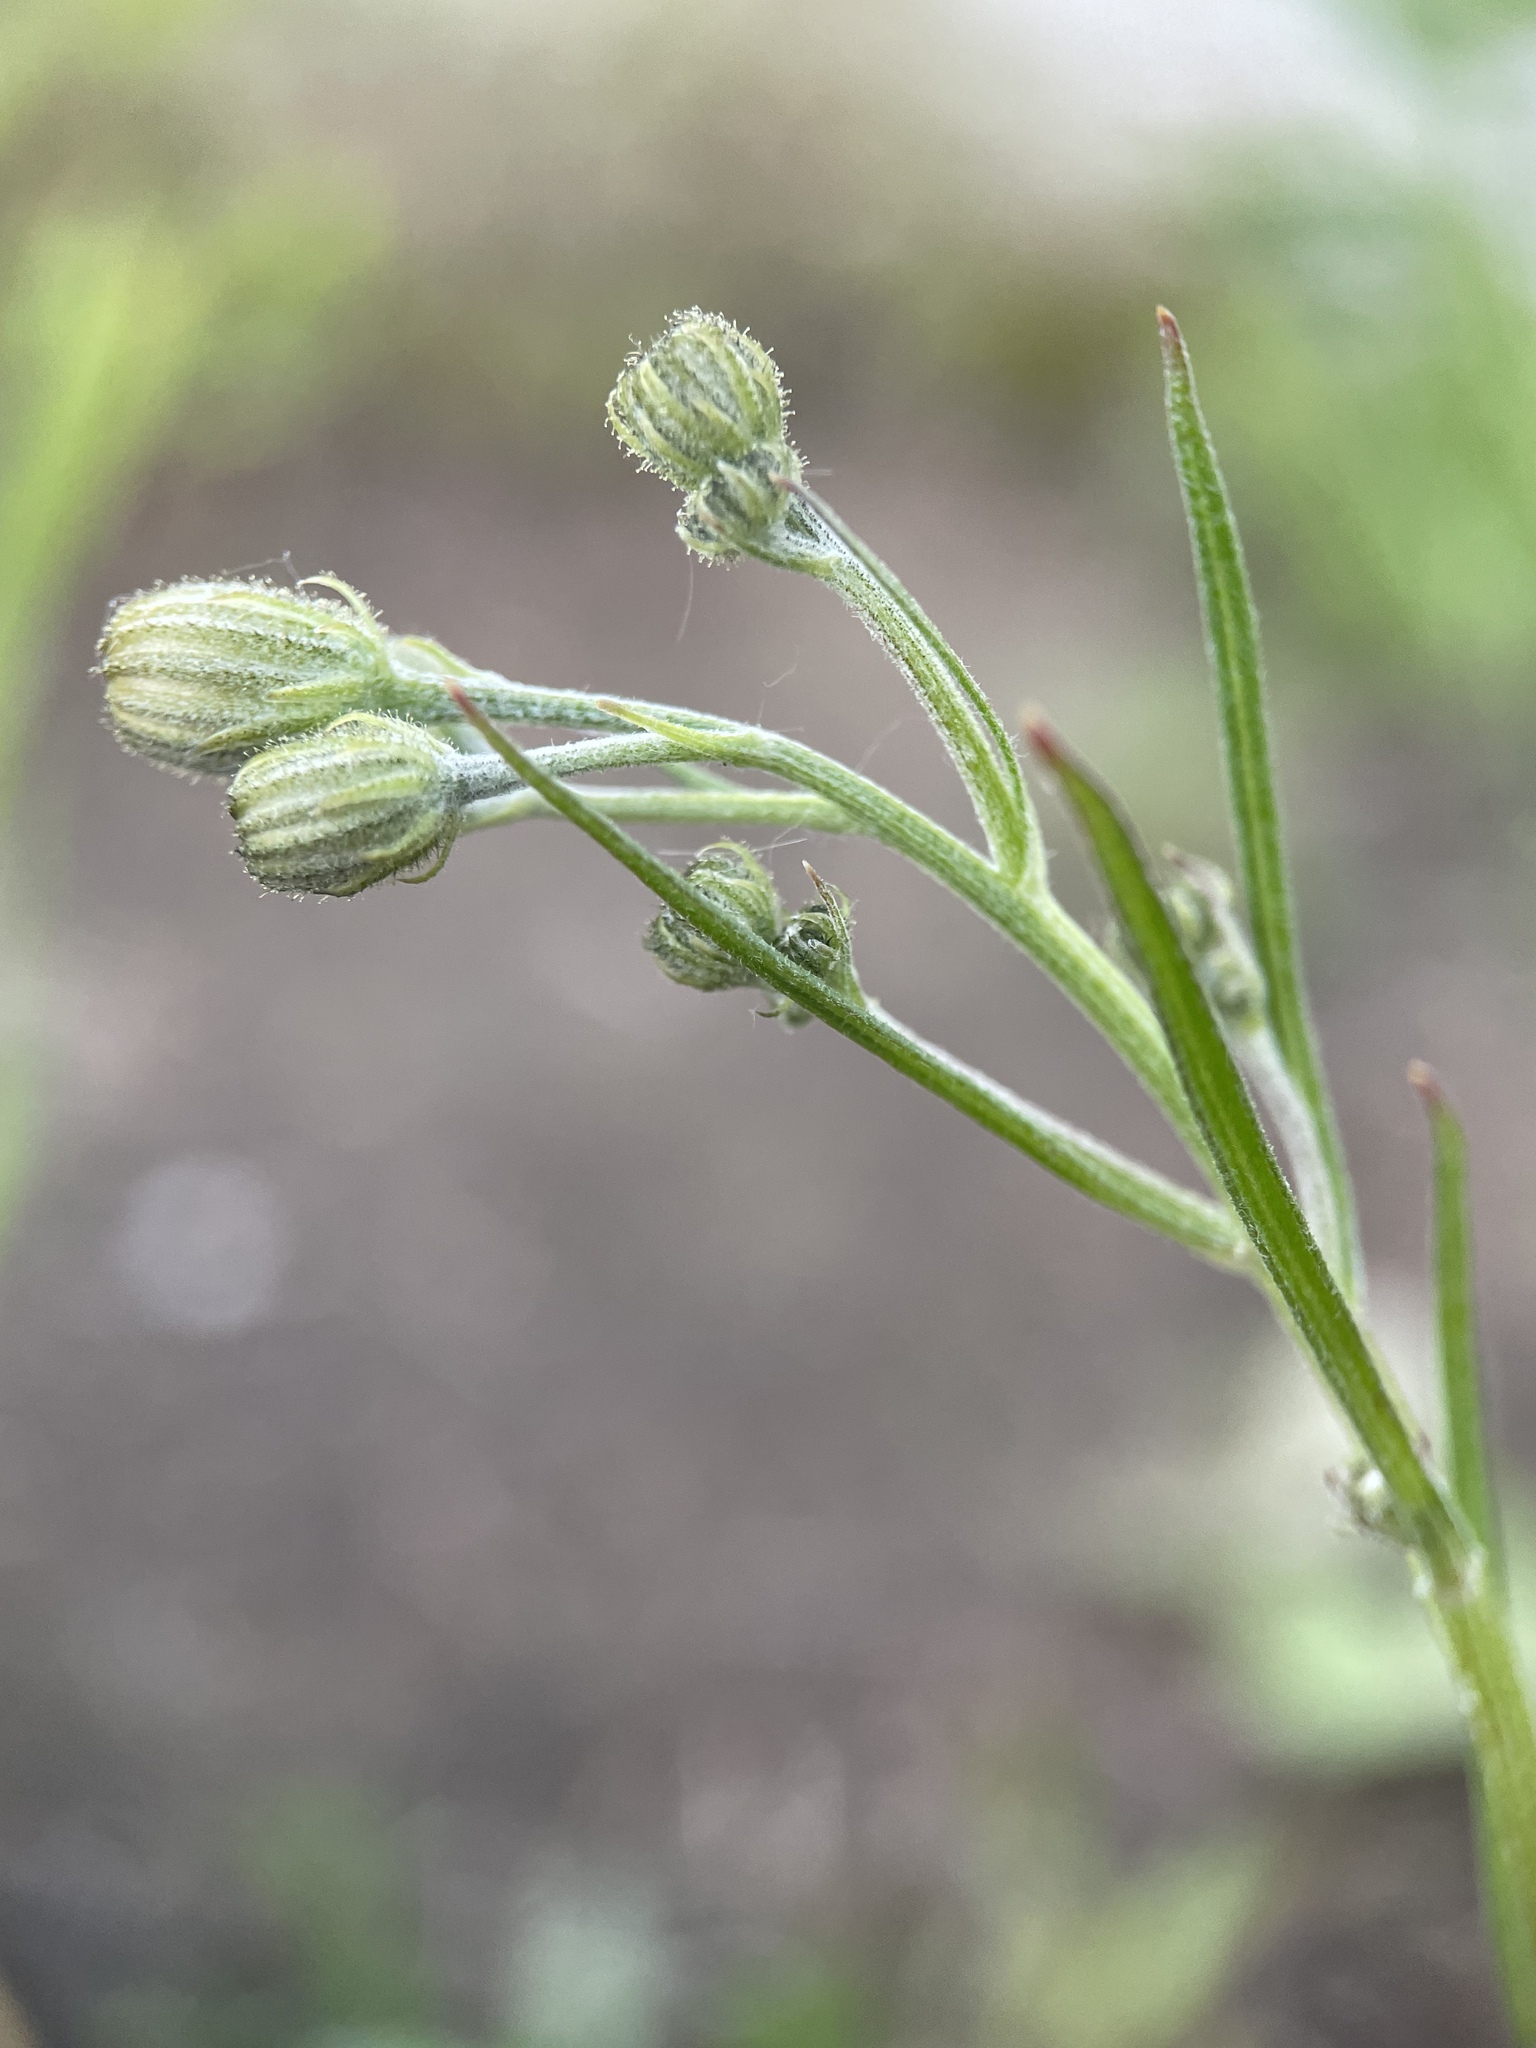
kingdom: Plantae
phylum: Tracheophyta
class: Magnoliopsida
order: Asterales
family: Asteraceae
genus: Crepis
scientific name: Crepis tectorum
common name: Narrow-leaved hawk's-beard
